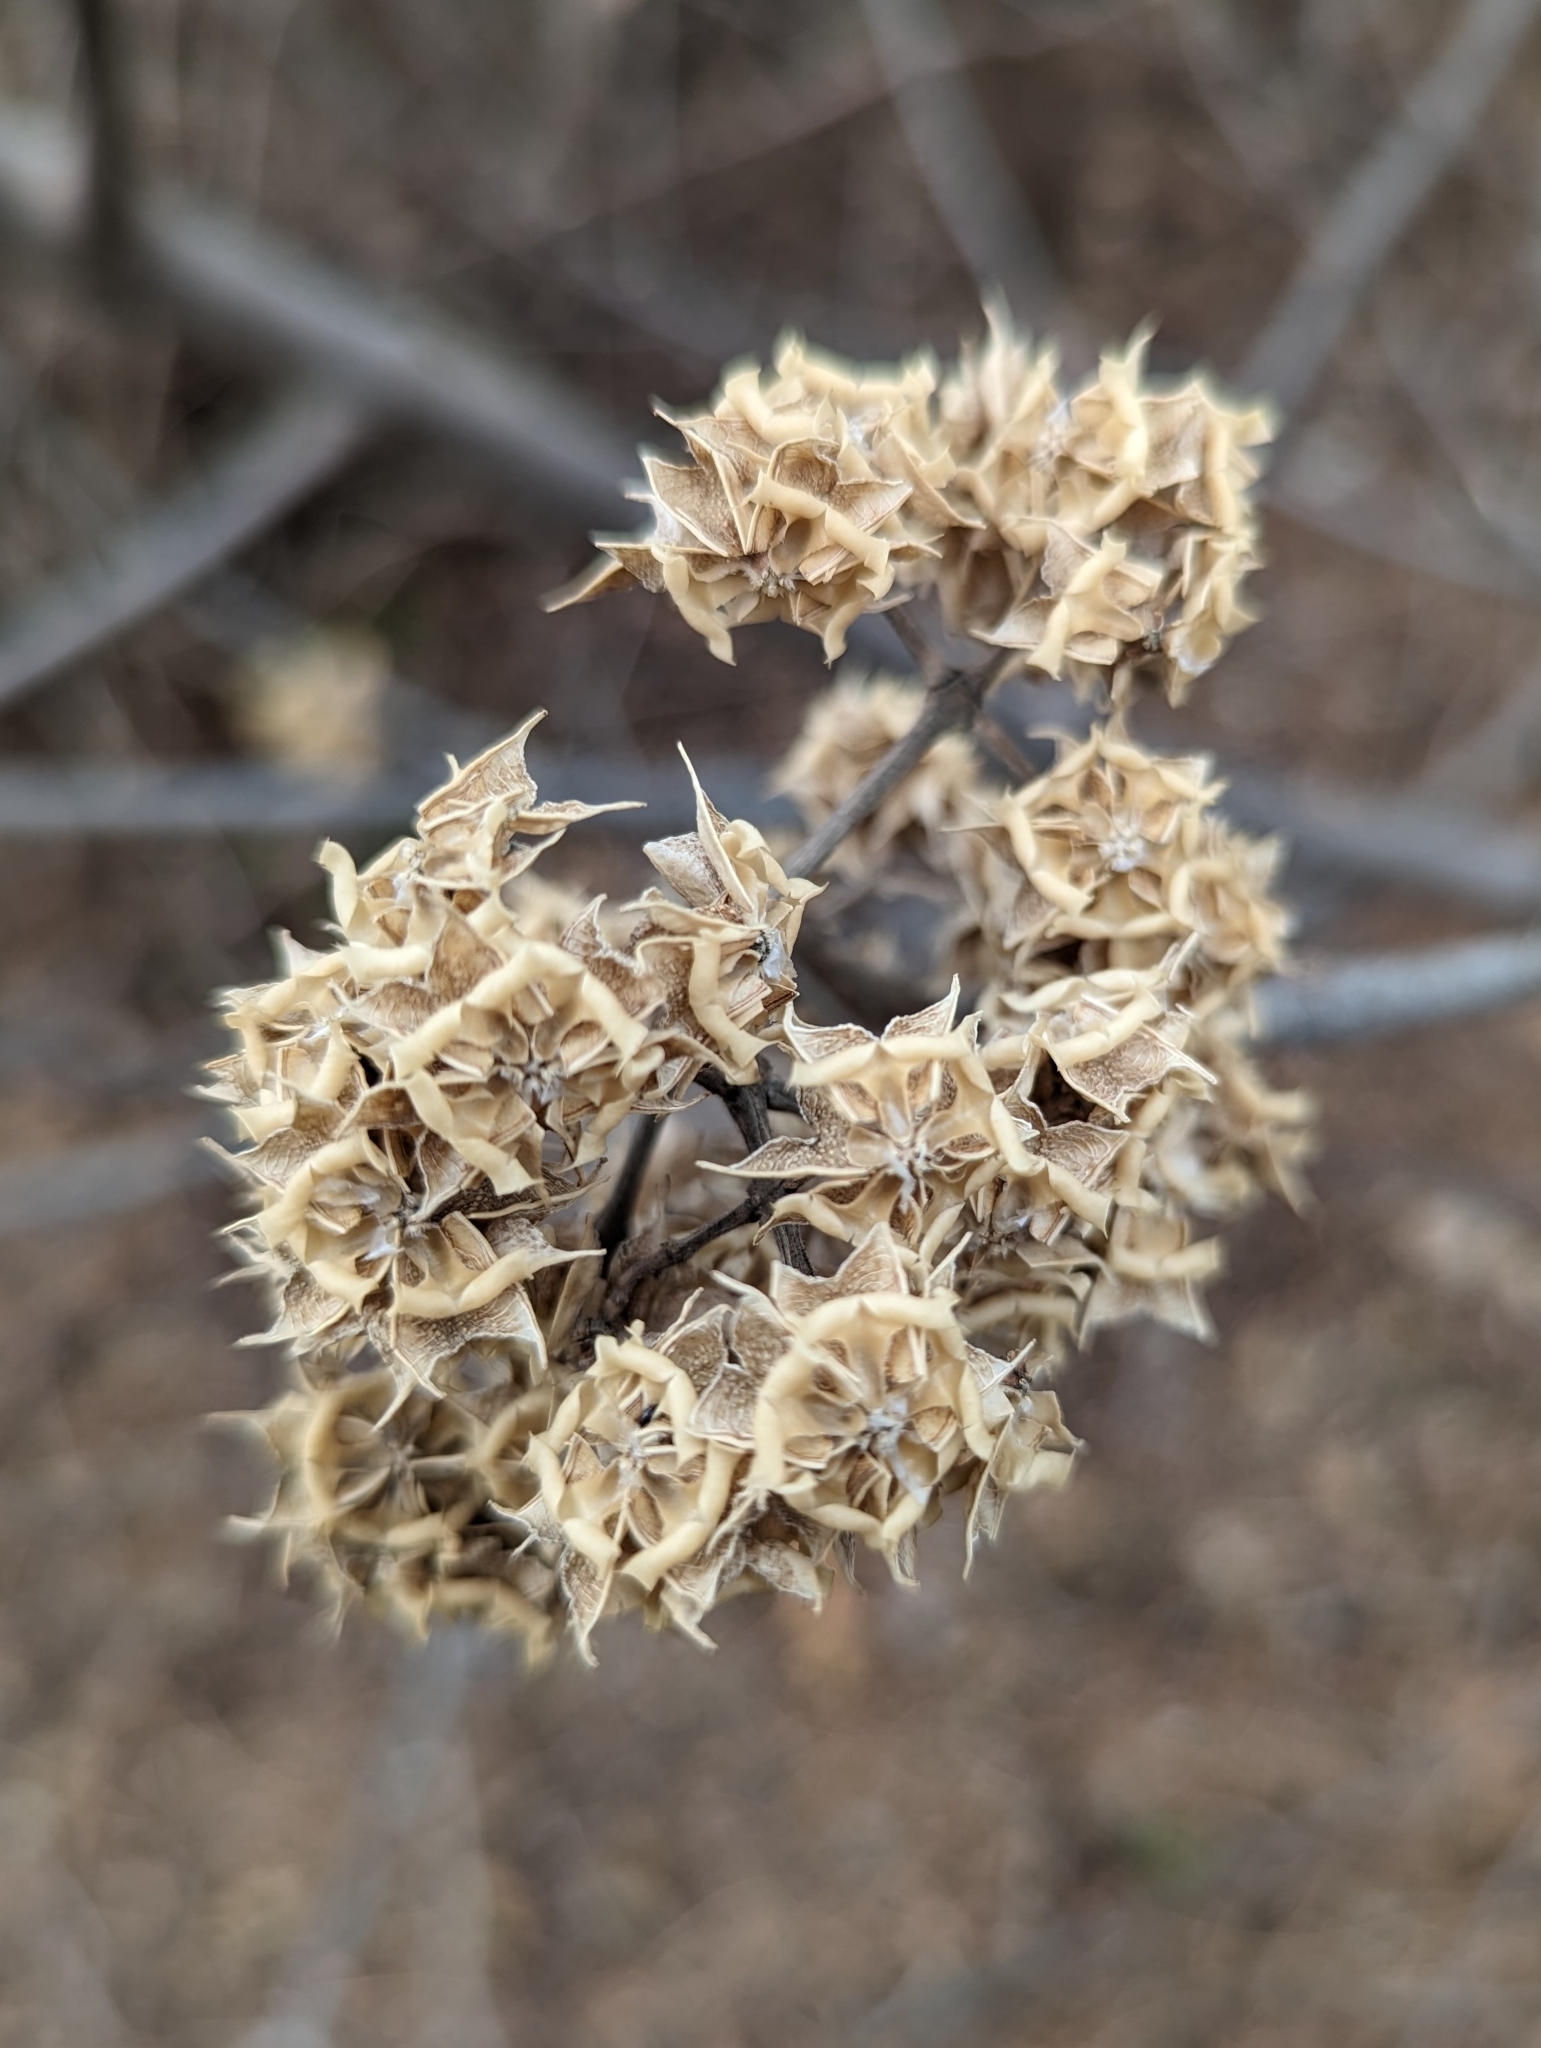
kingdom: Plantae
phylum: Tracheophyta
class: Magnoliopsida
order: Sapindales
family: Rutaceae
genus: Tetradium
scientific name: Tetradium daniellii
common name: Bee-bee tree
